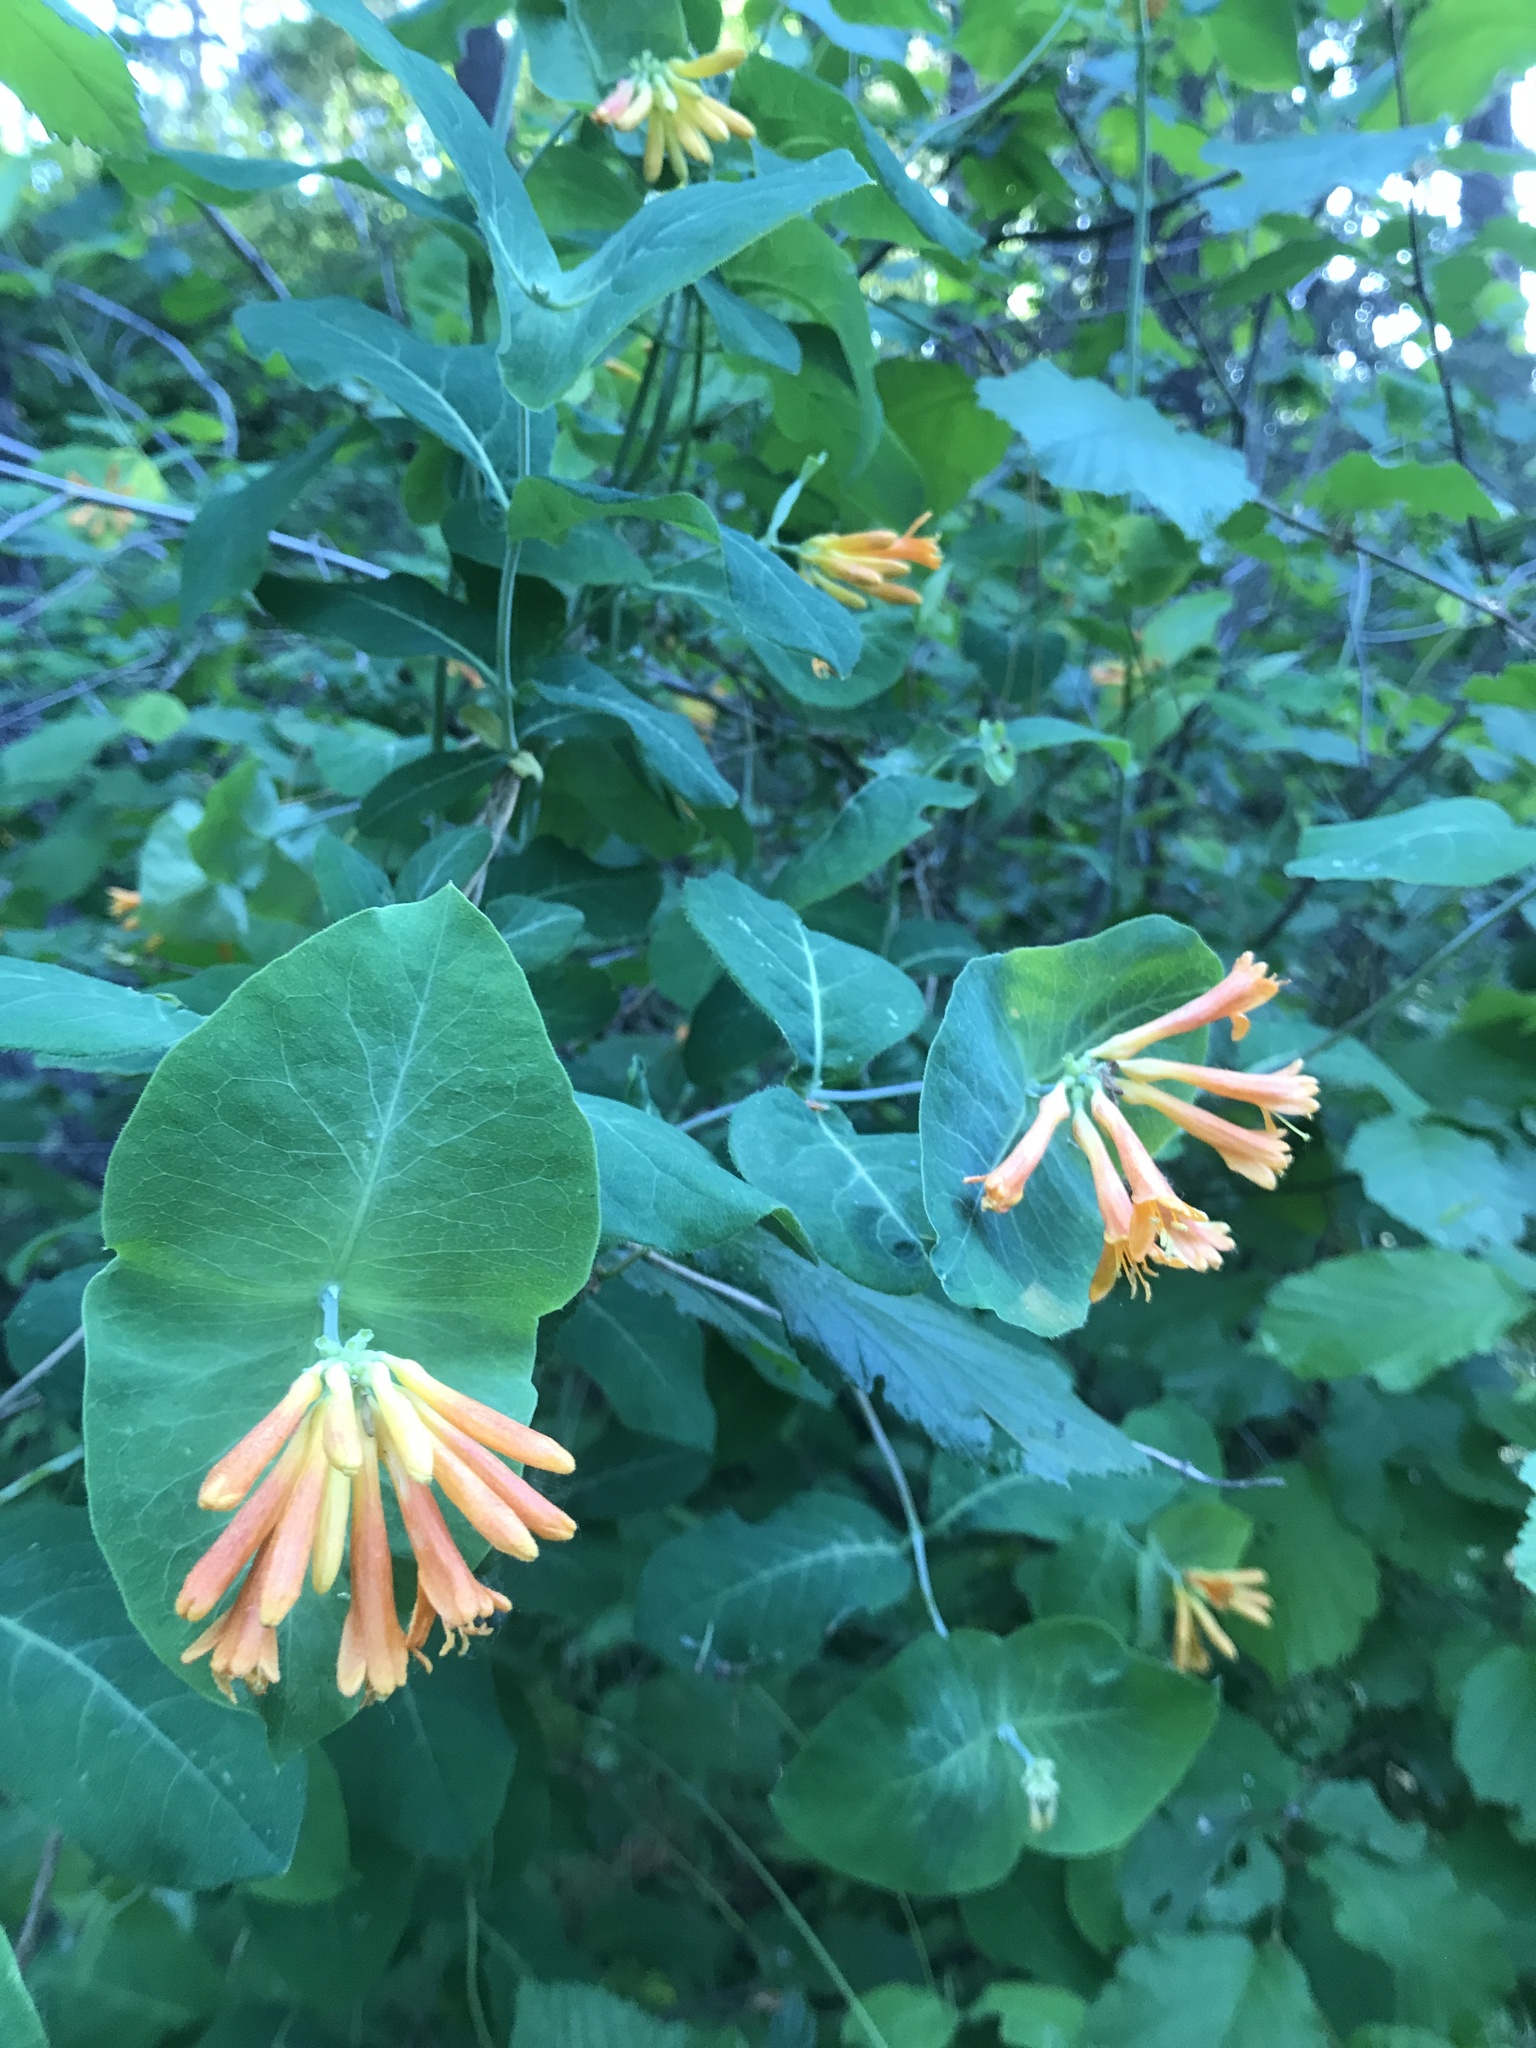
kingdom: Plantae
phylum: Tracheophyta
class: Magnoliopsida
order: Dipsacales
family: Caprifoliaceae
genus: Lonicera
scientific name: Lonicera ciliosa
